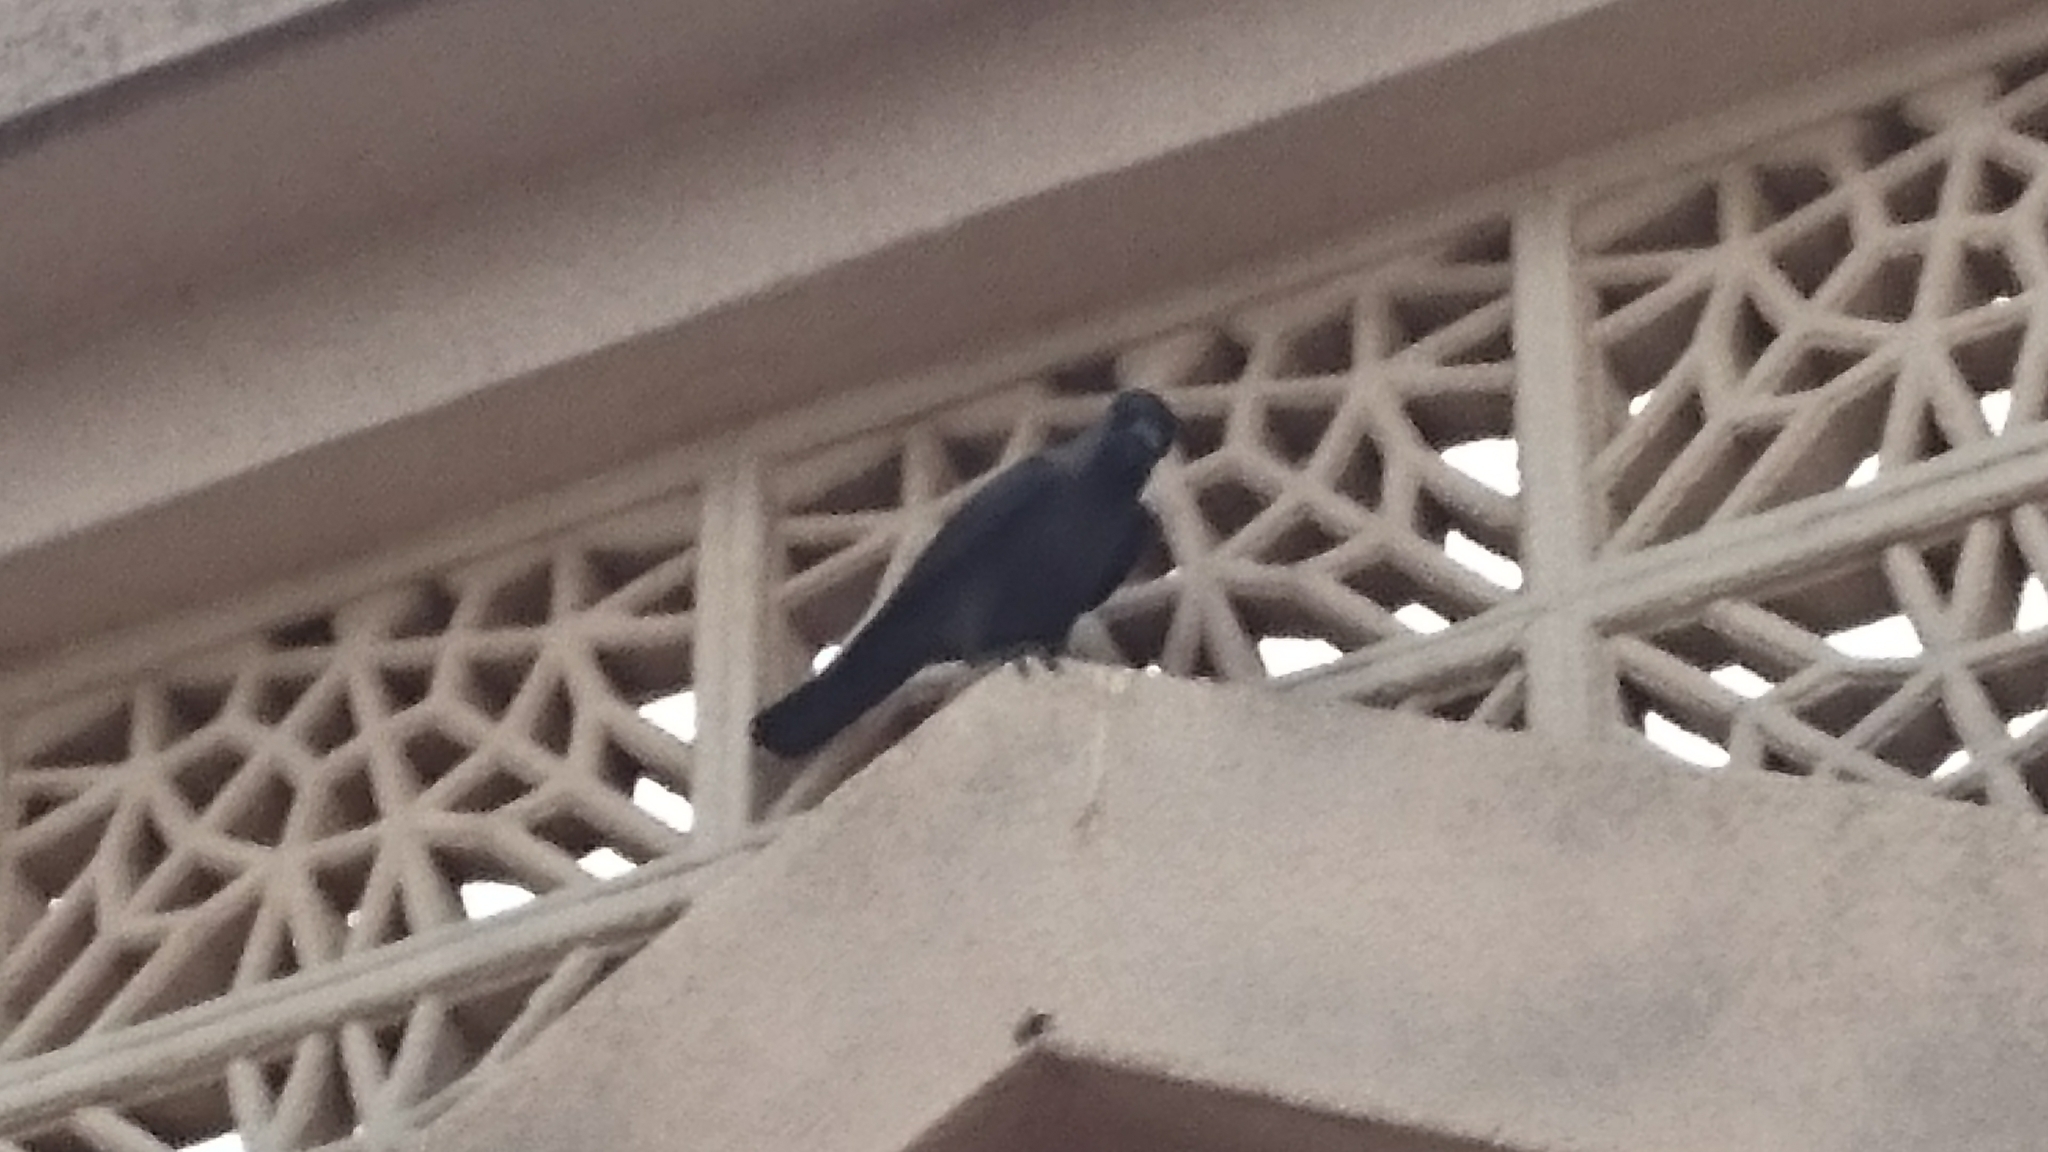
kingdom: Animalia
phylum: Chordata
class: Aves
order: Passeriformes
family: Corvidae
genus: Corvus
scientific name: Corvus splendens
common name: House crow
